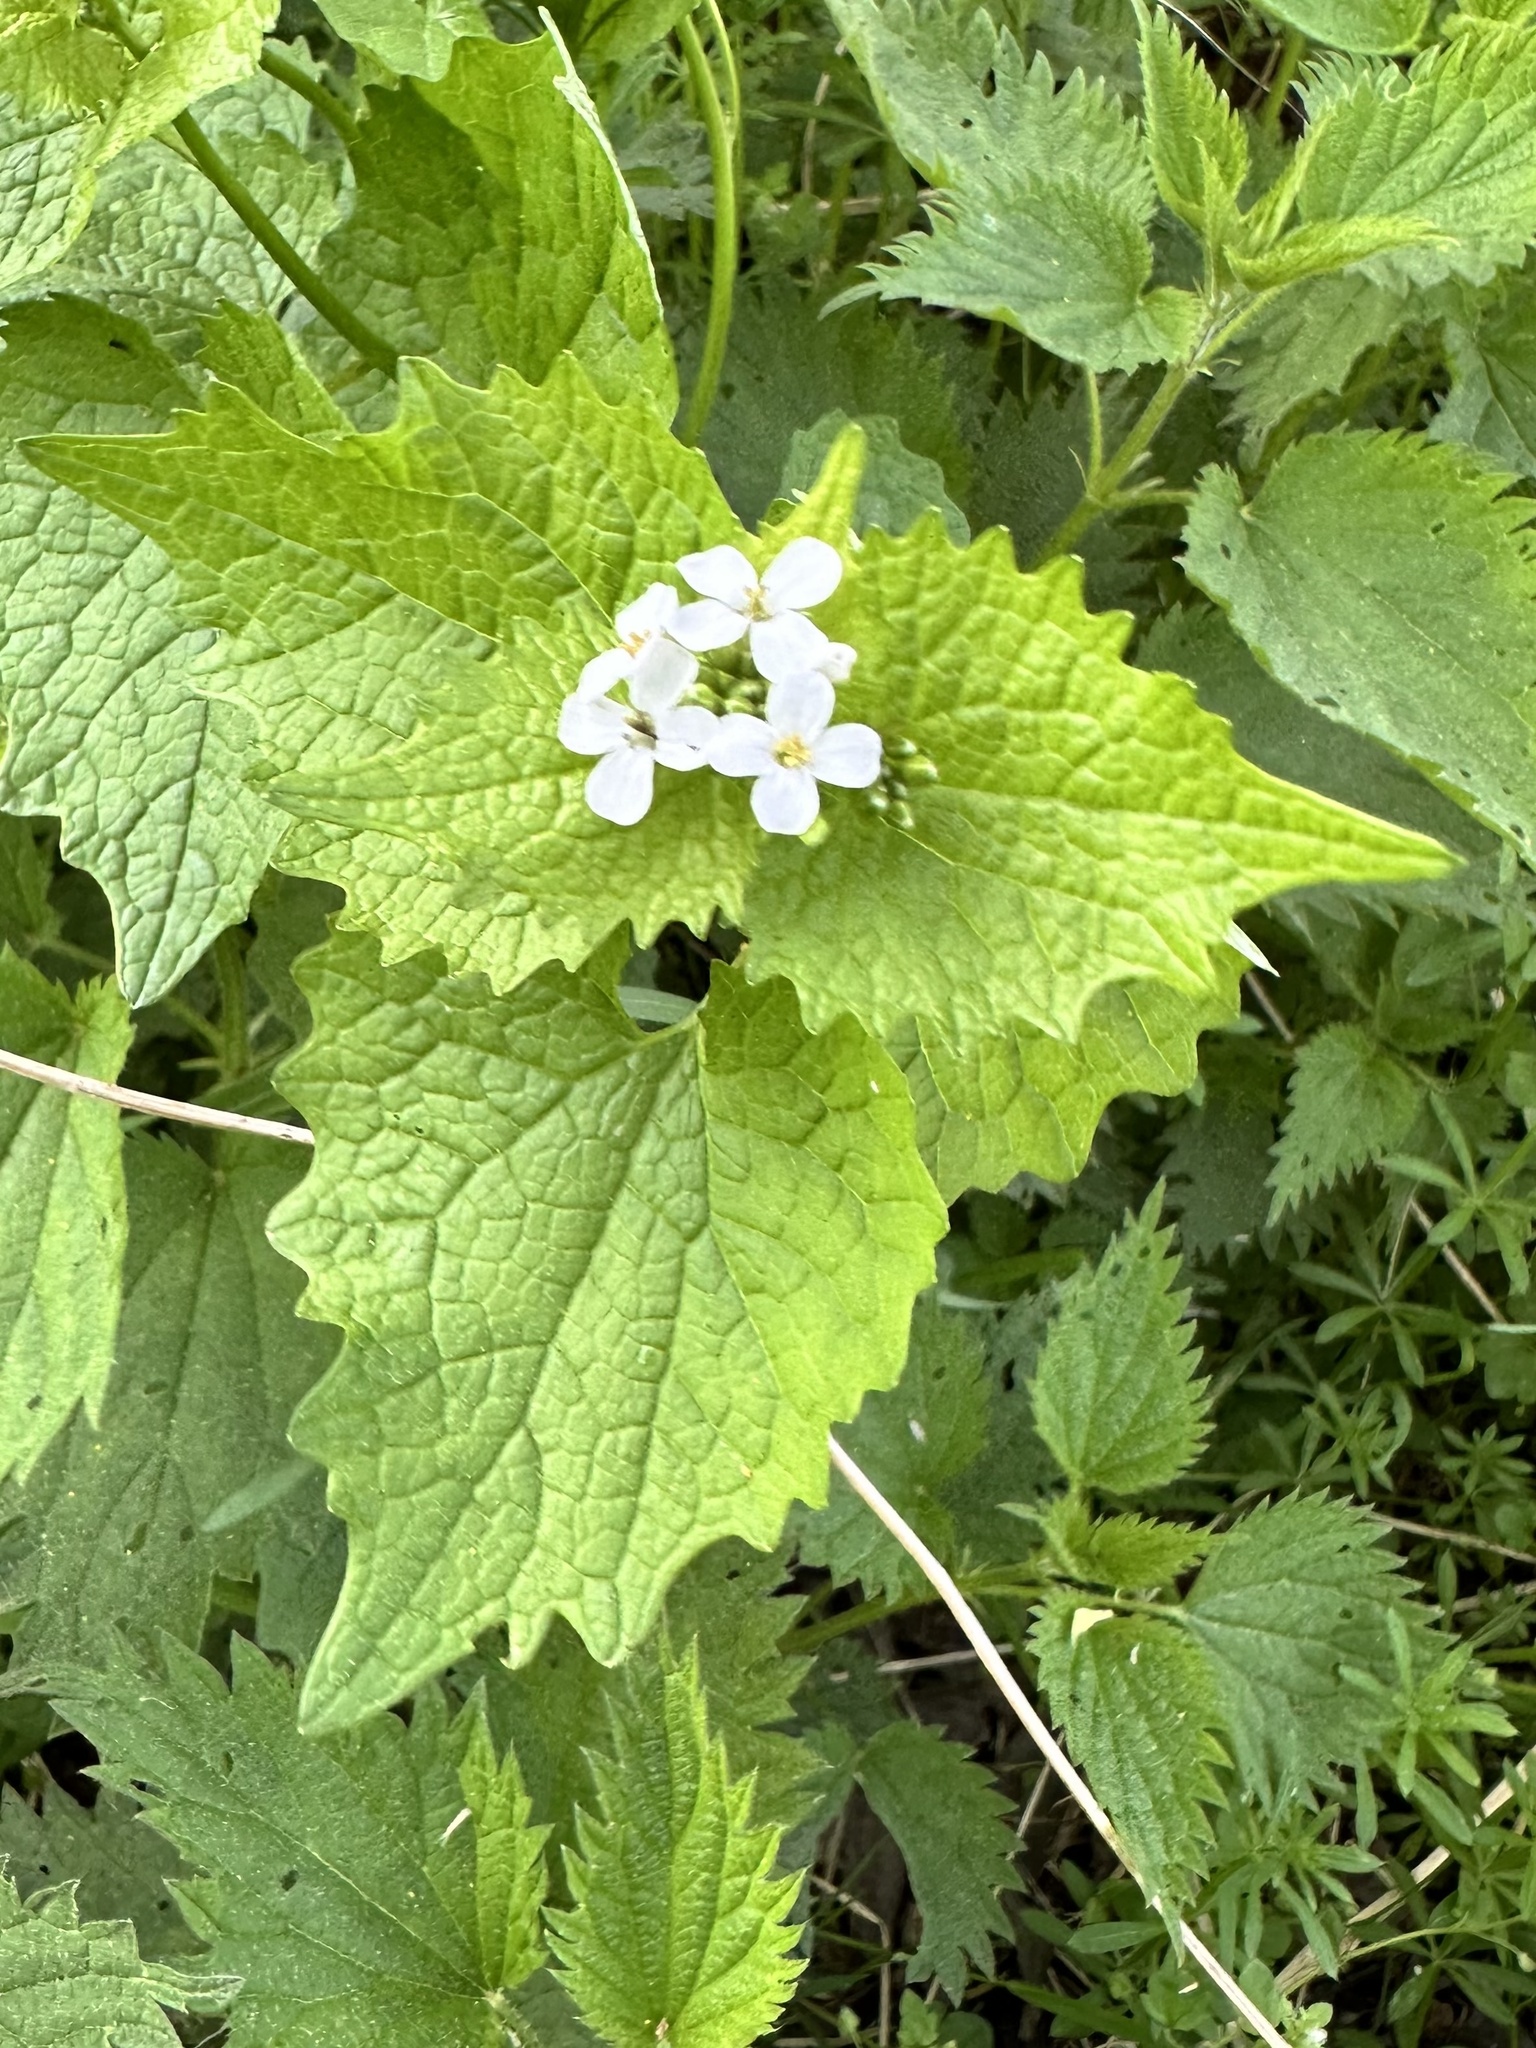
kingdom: Plantae
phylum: Tracheophyta
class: Magnoliopsida
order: Brassicales
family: Brassicaceae
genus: Alliaria
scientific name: Alliaria petiolata
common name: Garlic mustard
